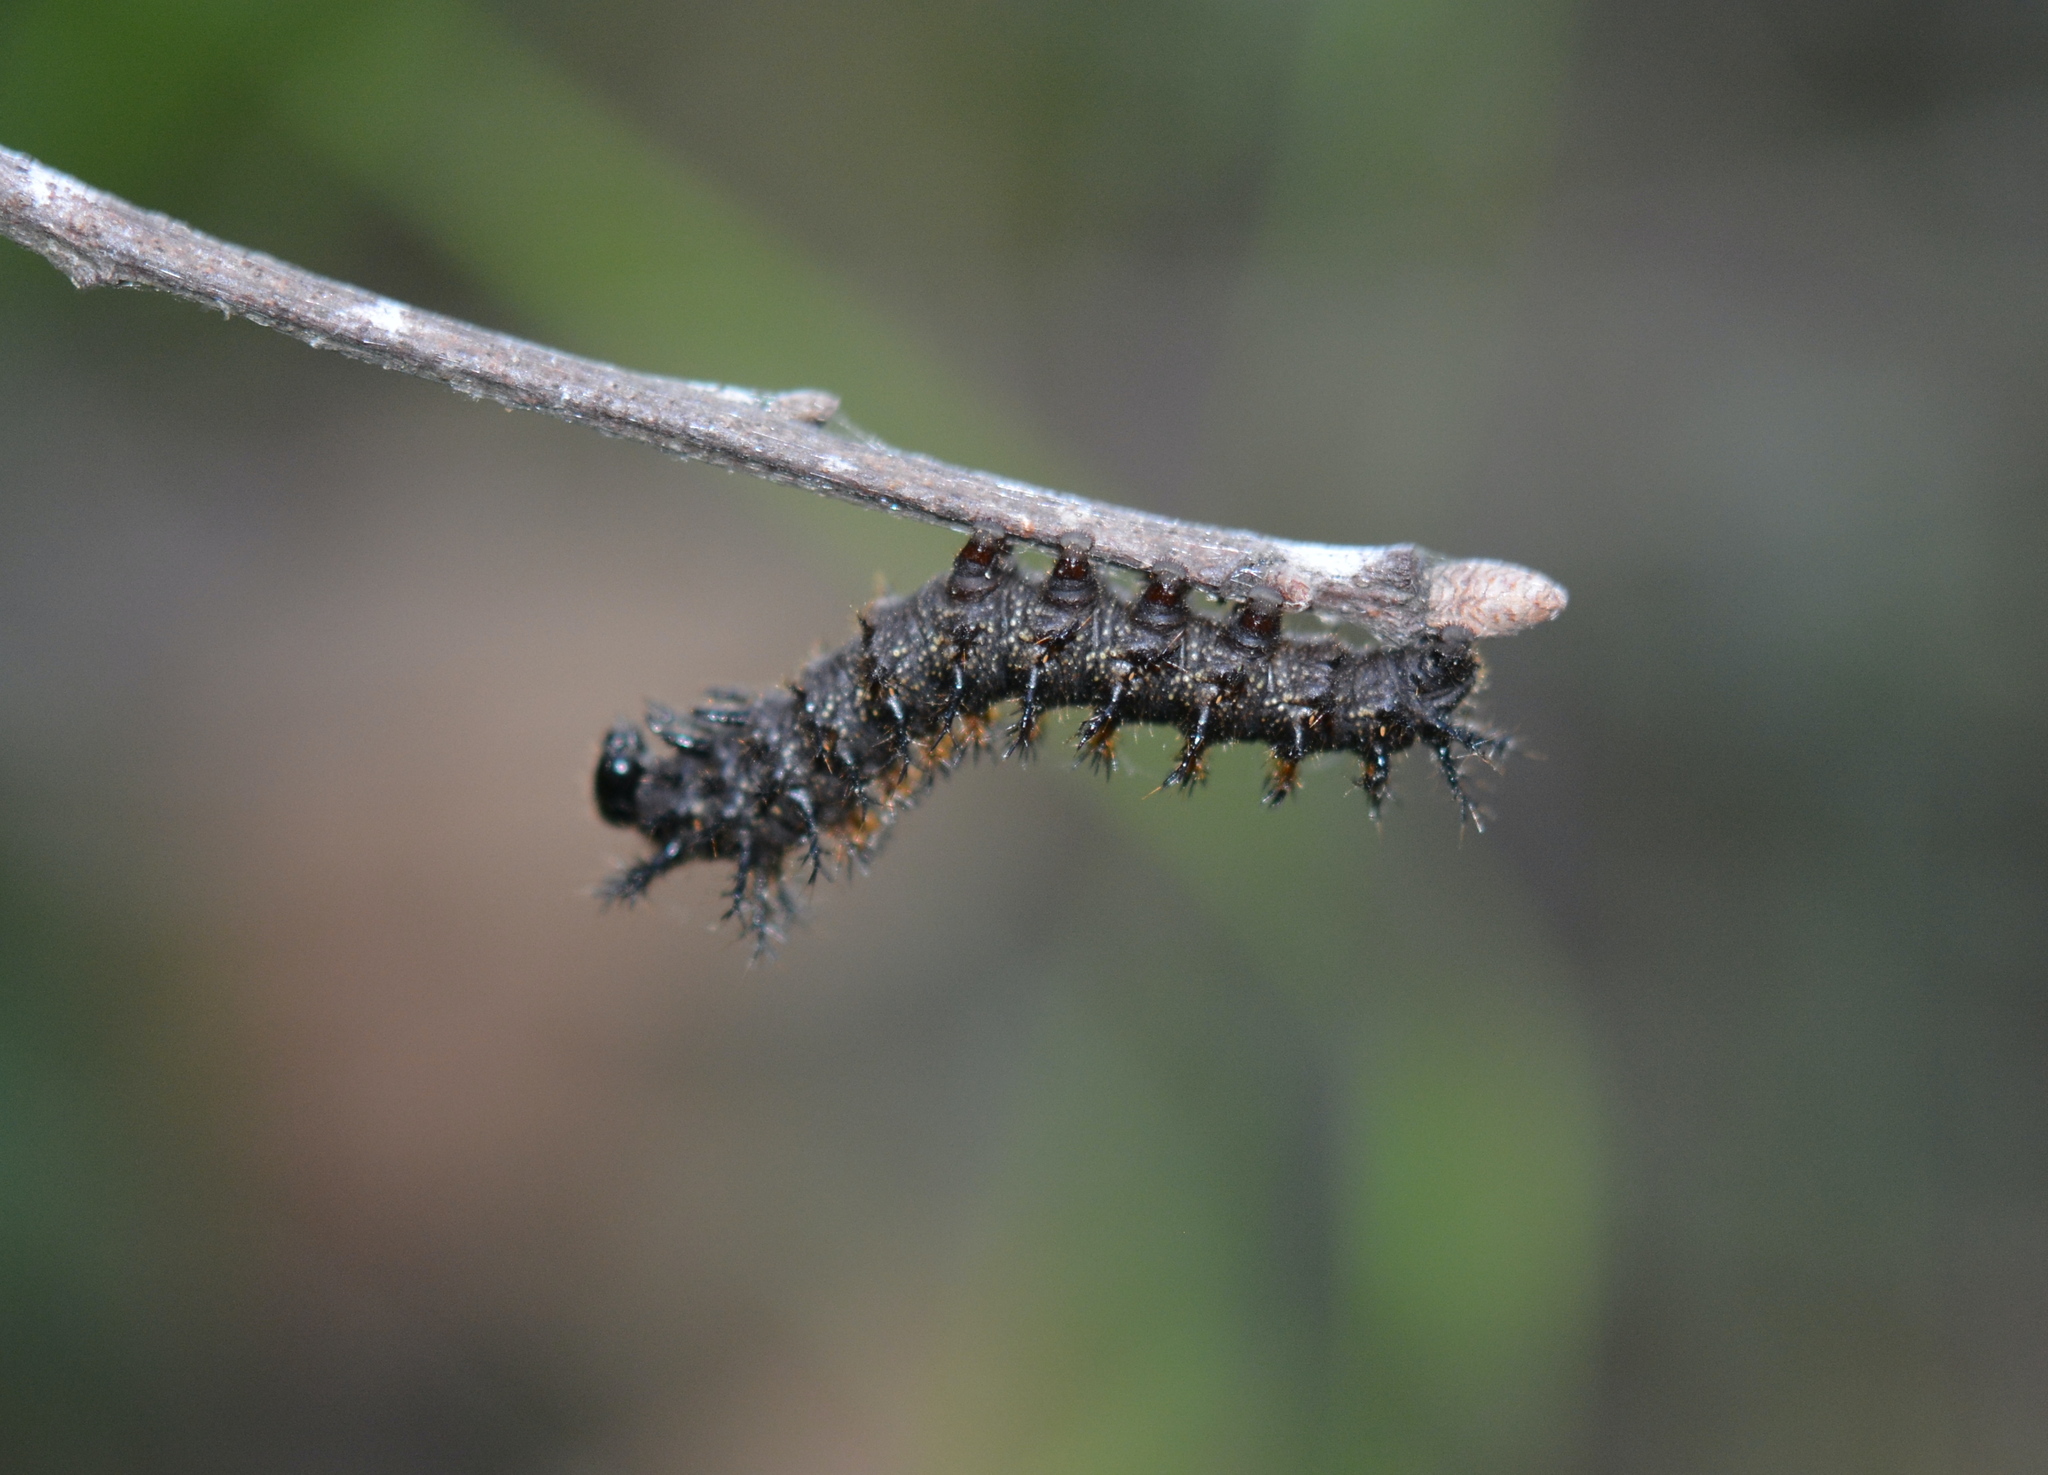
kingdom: Animalia
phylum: Arthropoda
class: Insecta
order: Lepidoptera
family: Saturniidae
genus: Hemileuca
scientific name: Hemileuca maia
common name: Eastern buckmoth
